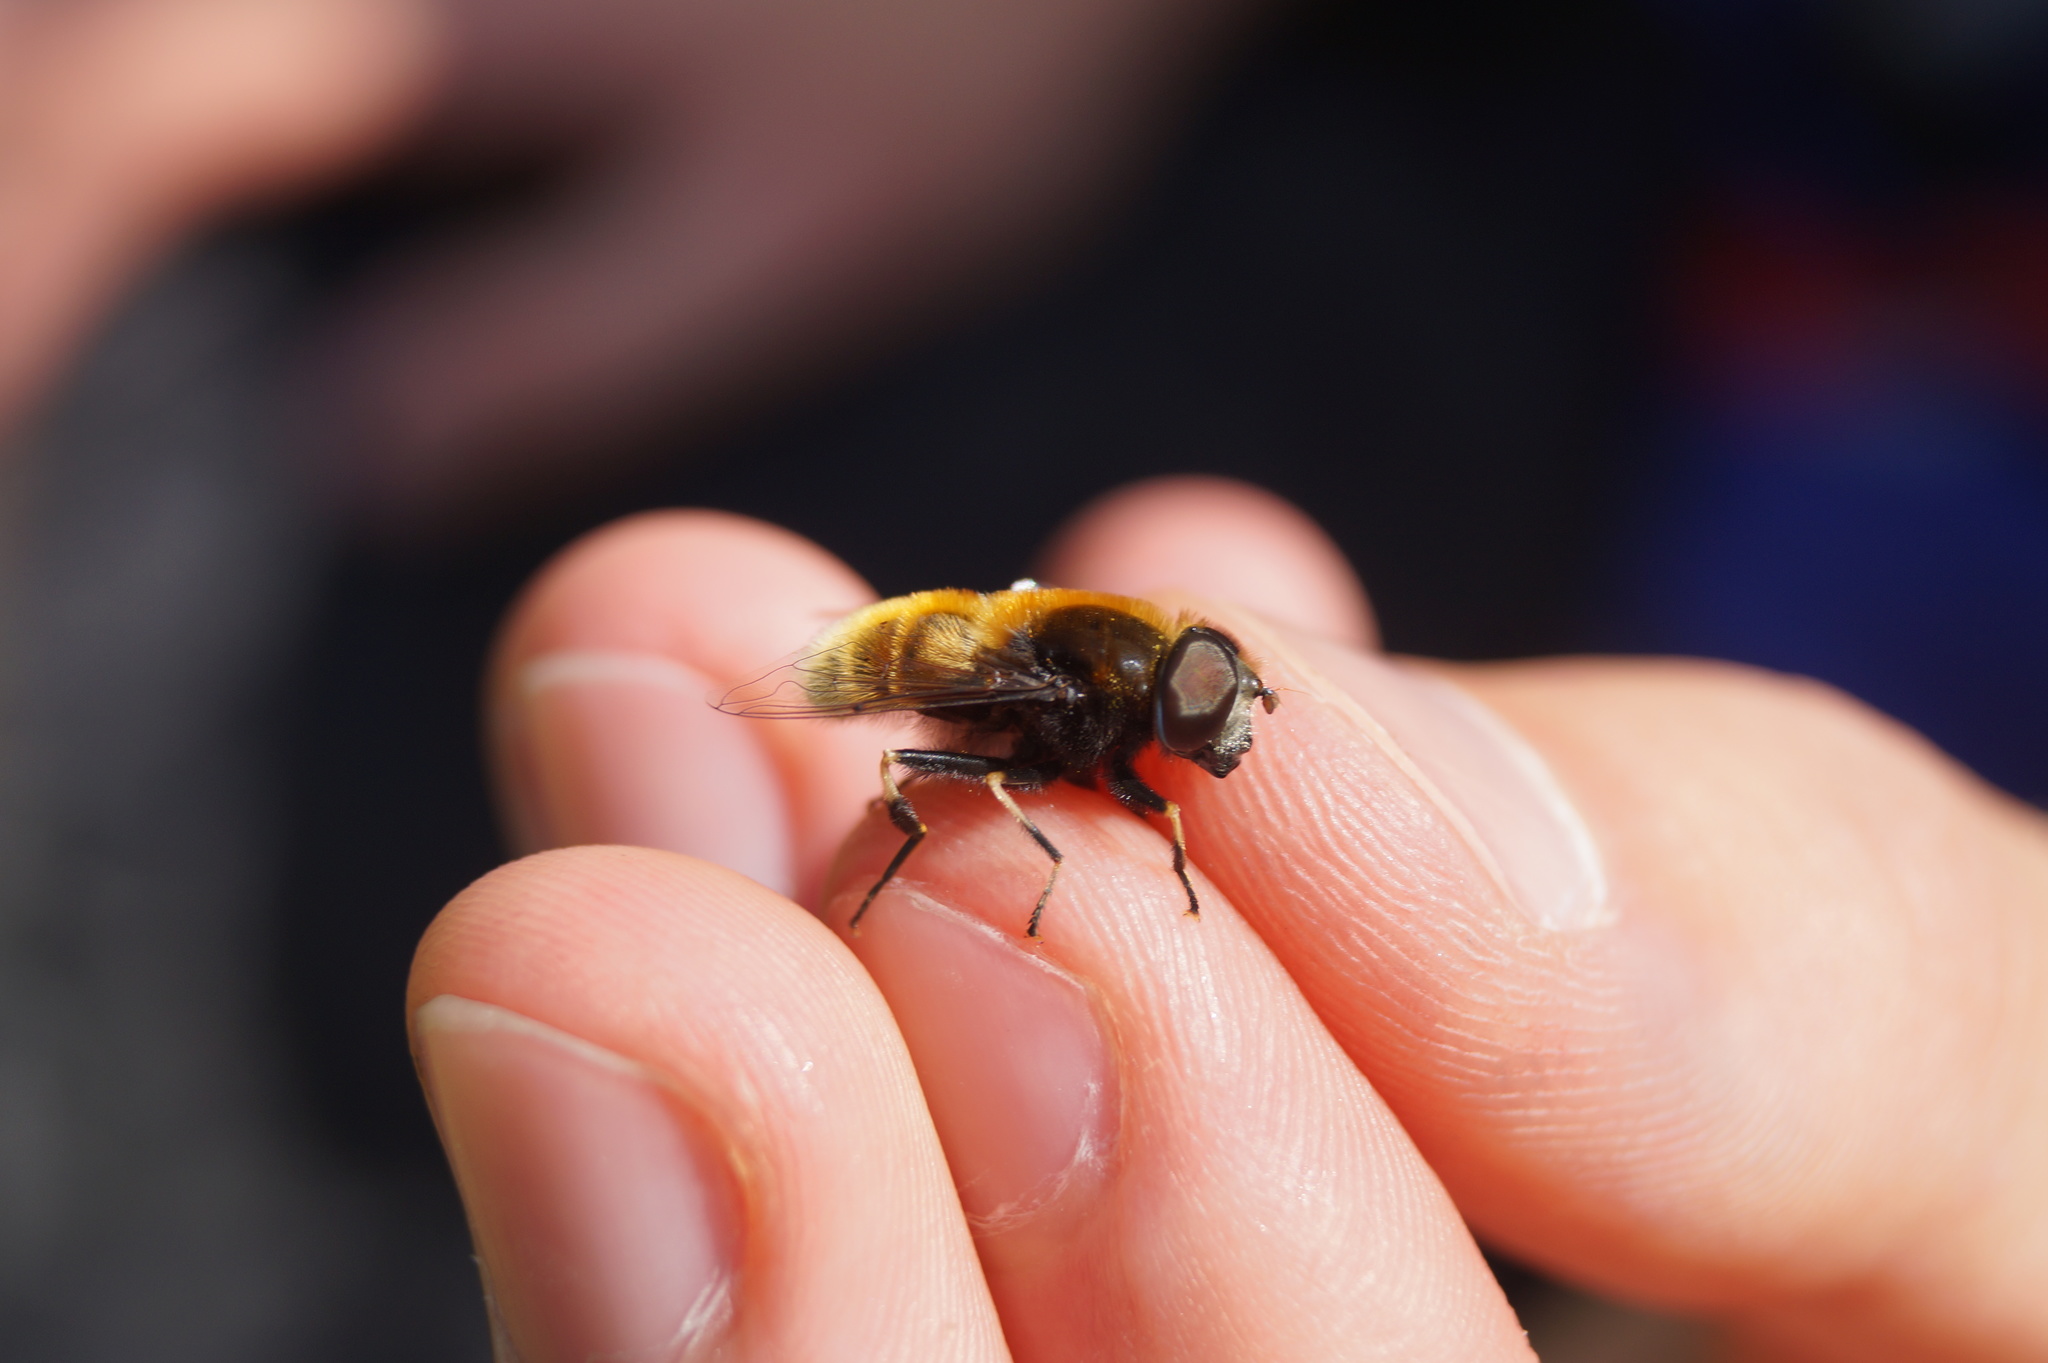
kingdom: Animalia
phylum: Arthropoda
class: Insecta
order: Diptera
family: Syrphidae
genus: Eristalis
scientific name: Eristalis intricaria
